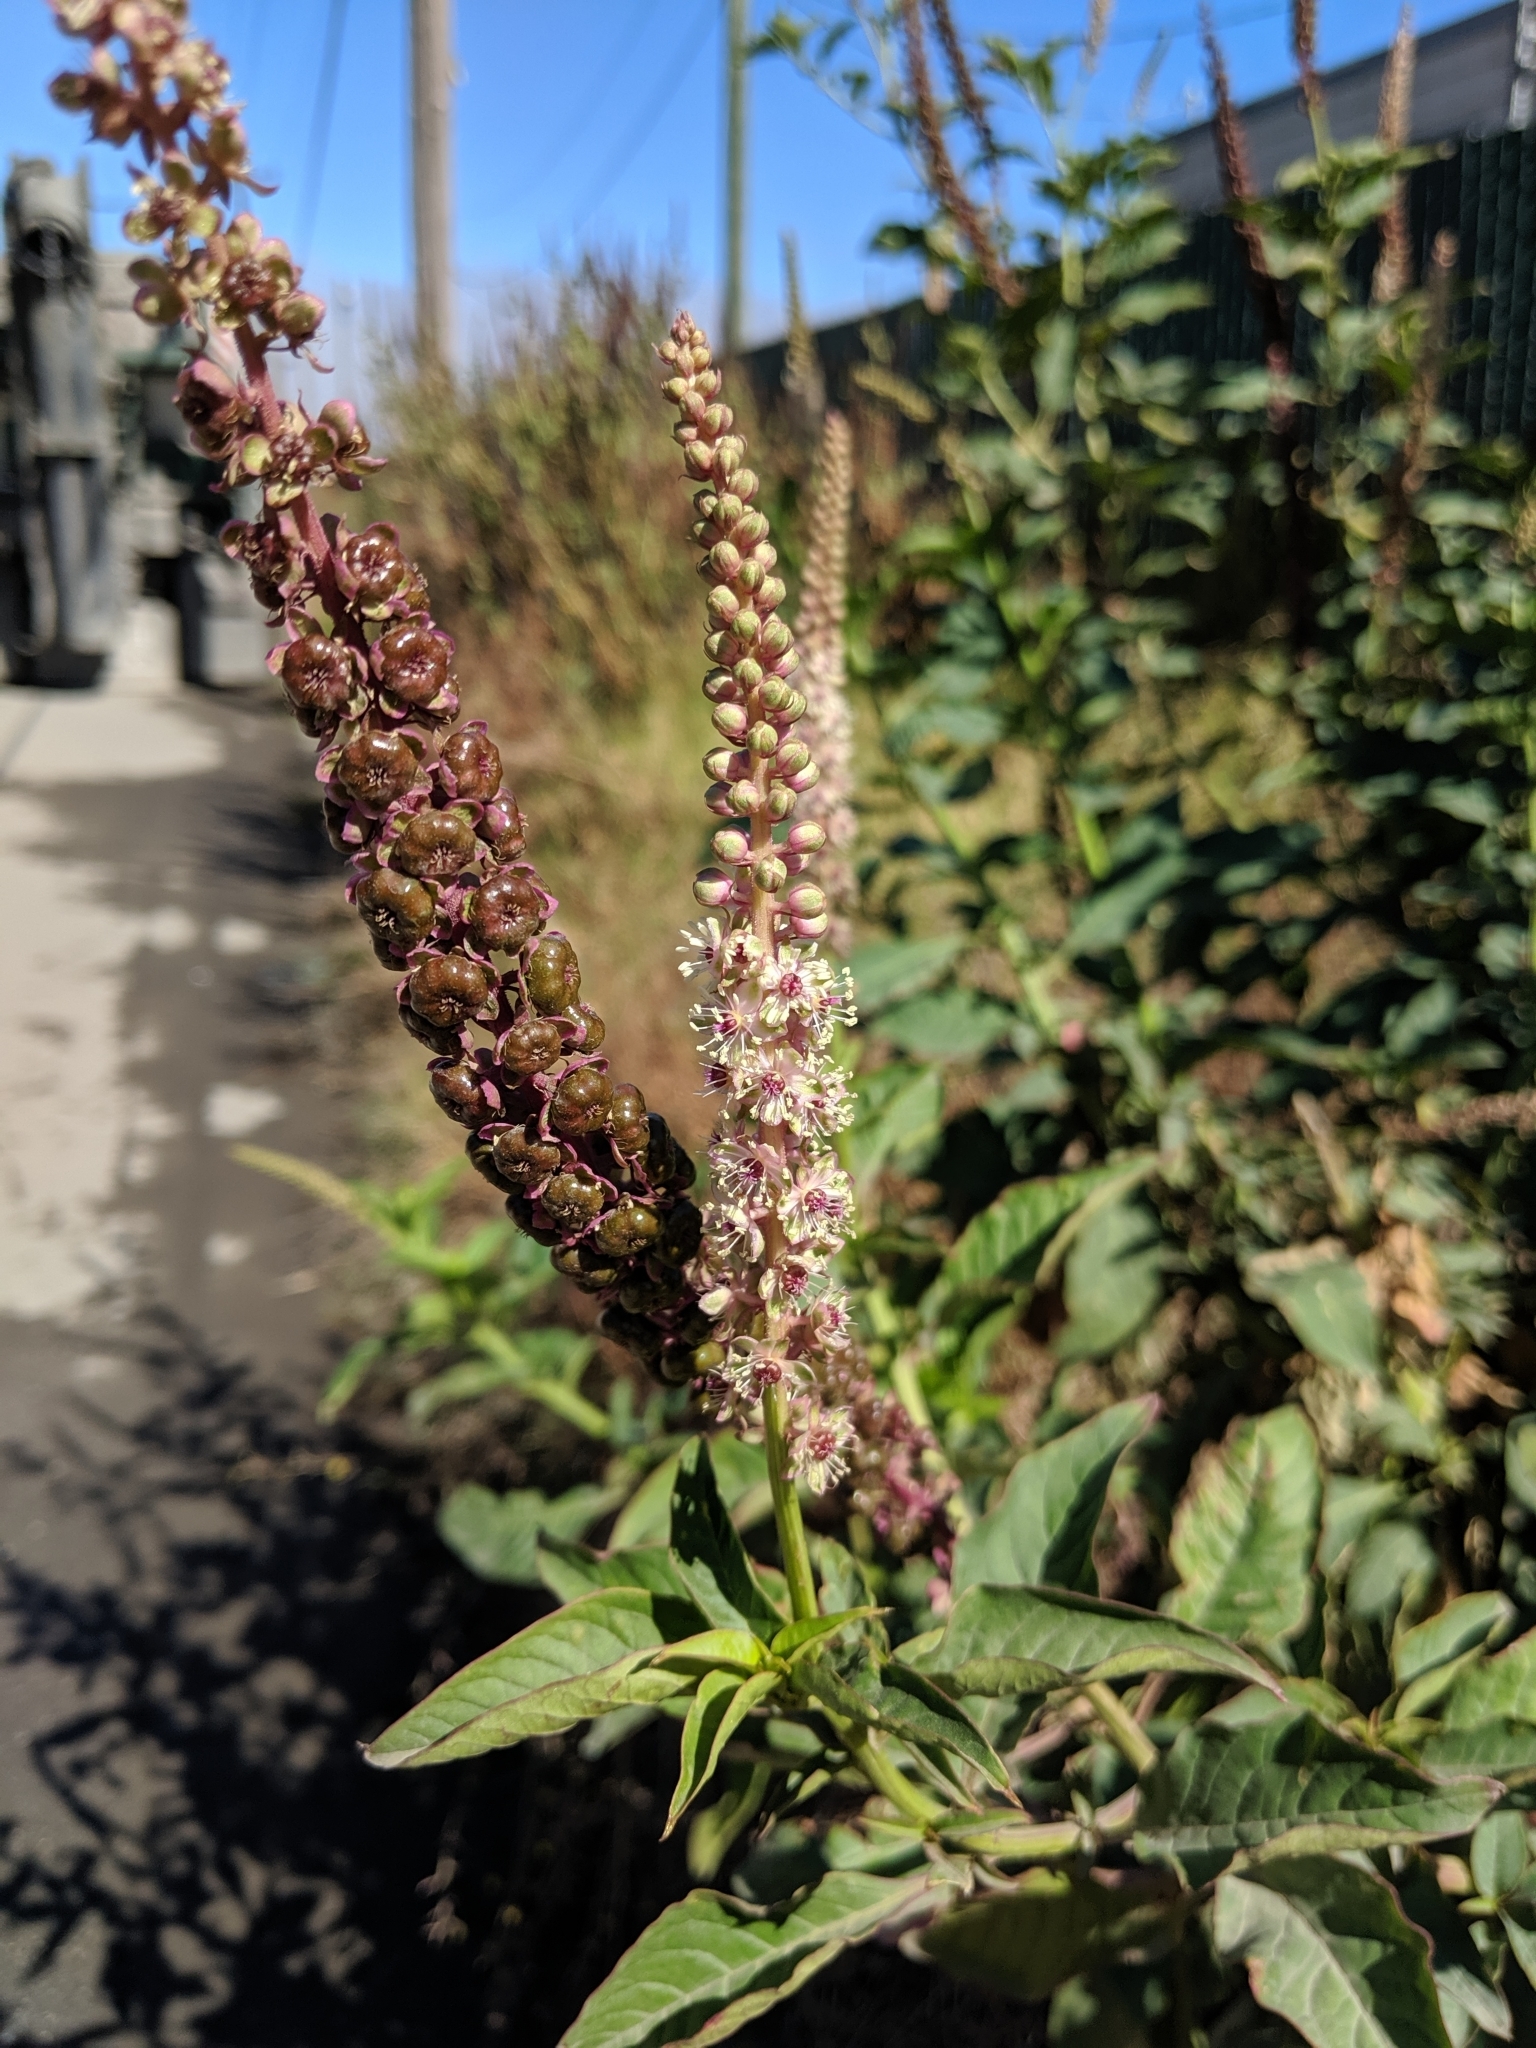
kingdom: Plantae
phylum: Tracheophyta
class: Magnoliopsida
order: Caryophyllales
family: Phytolaccaceae
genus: Phytolacca
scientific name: Phytolacca heterotepala
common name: Mexican pokeweed
